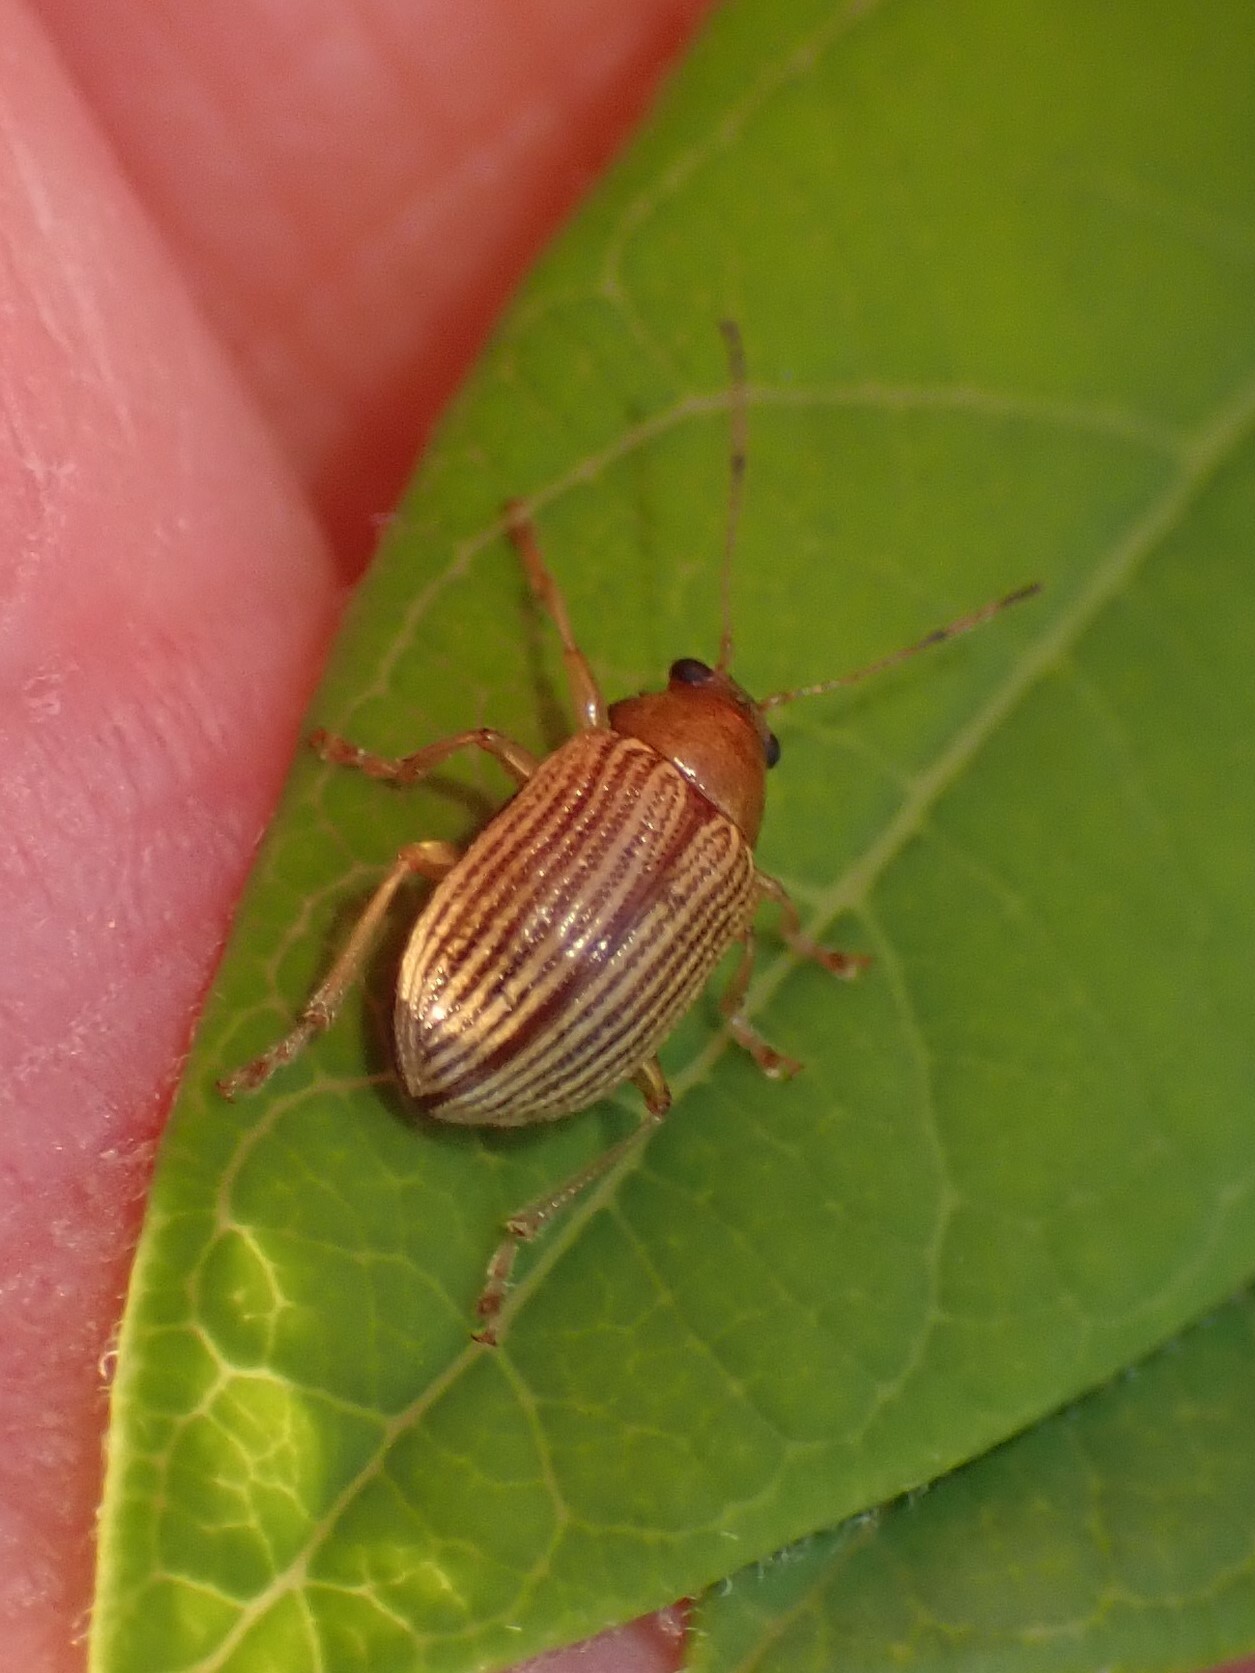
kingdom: Animalia
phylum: Arthropoda
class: Insecta
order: Coleoptera
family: Chrysomelidae
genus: Colaspis
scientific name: Colaspis brunnea
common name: Grape colaspis
